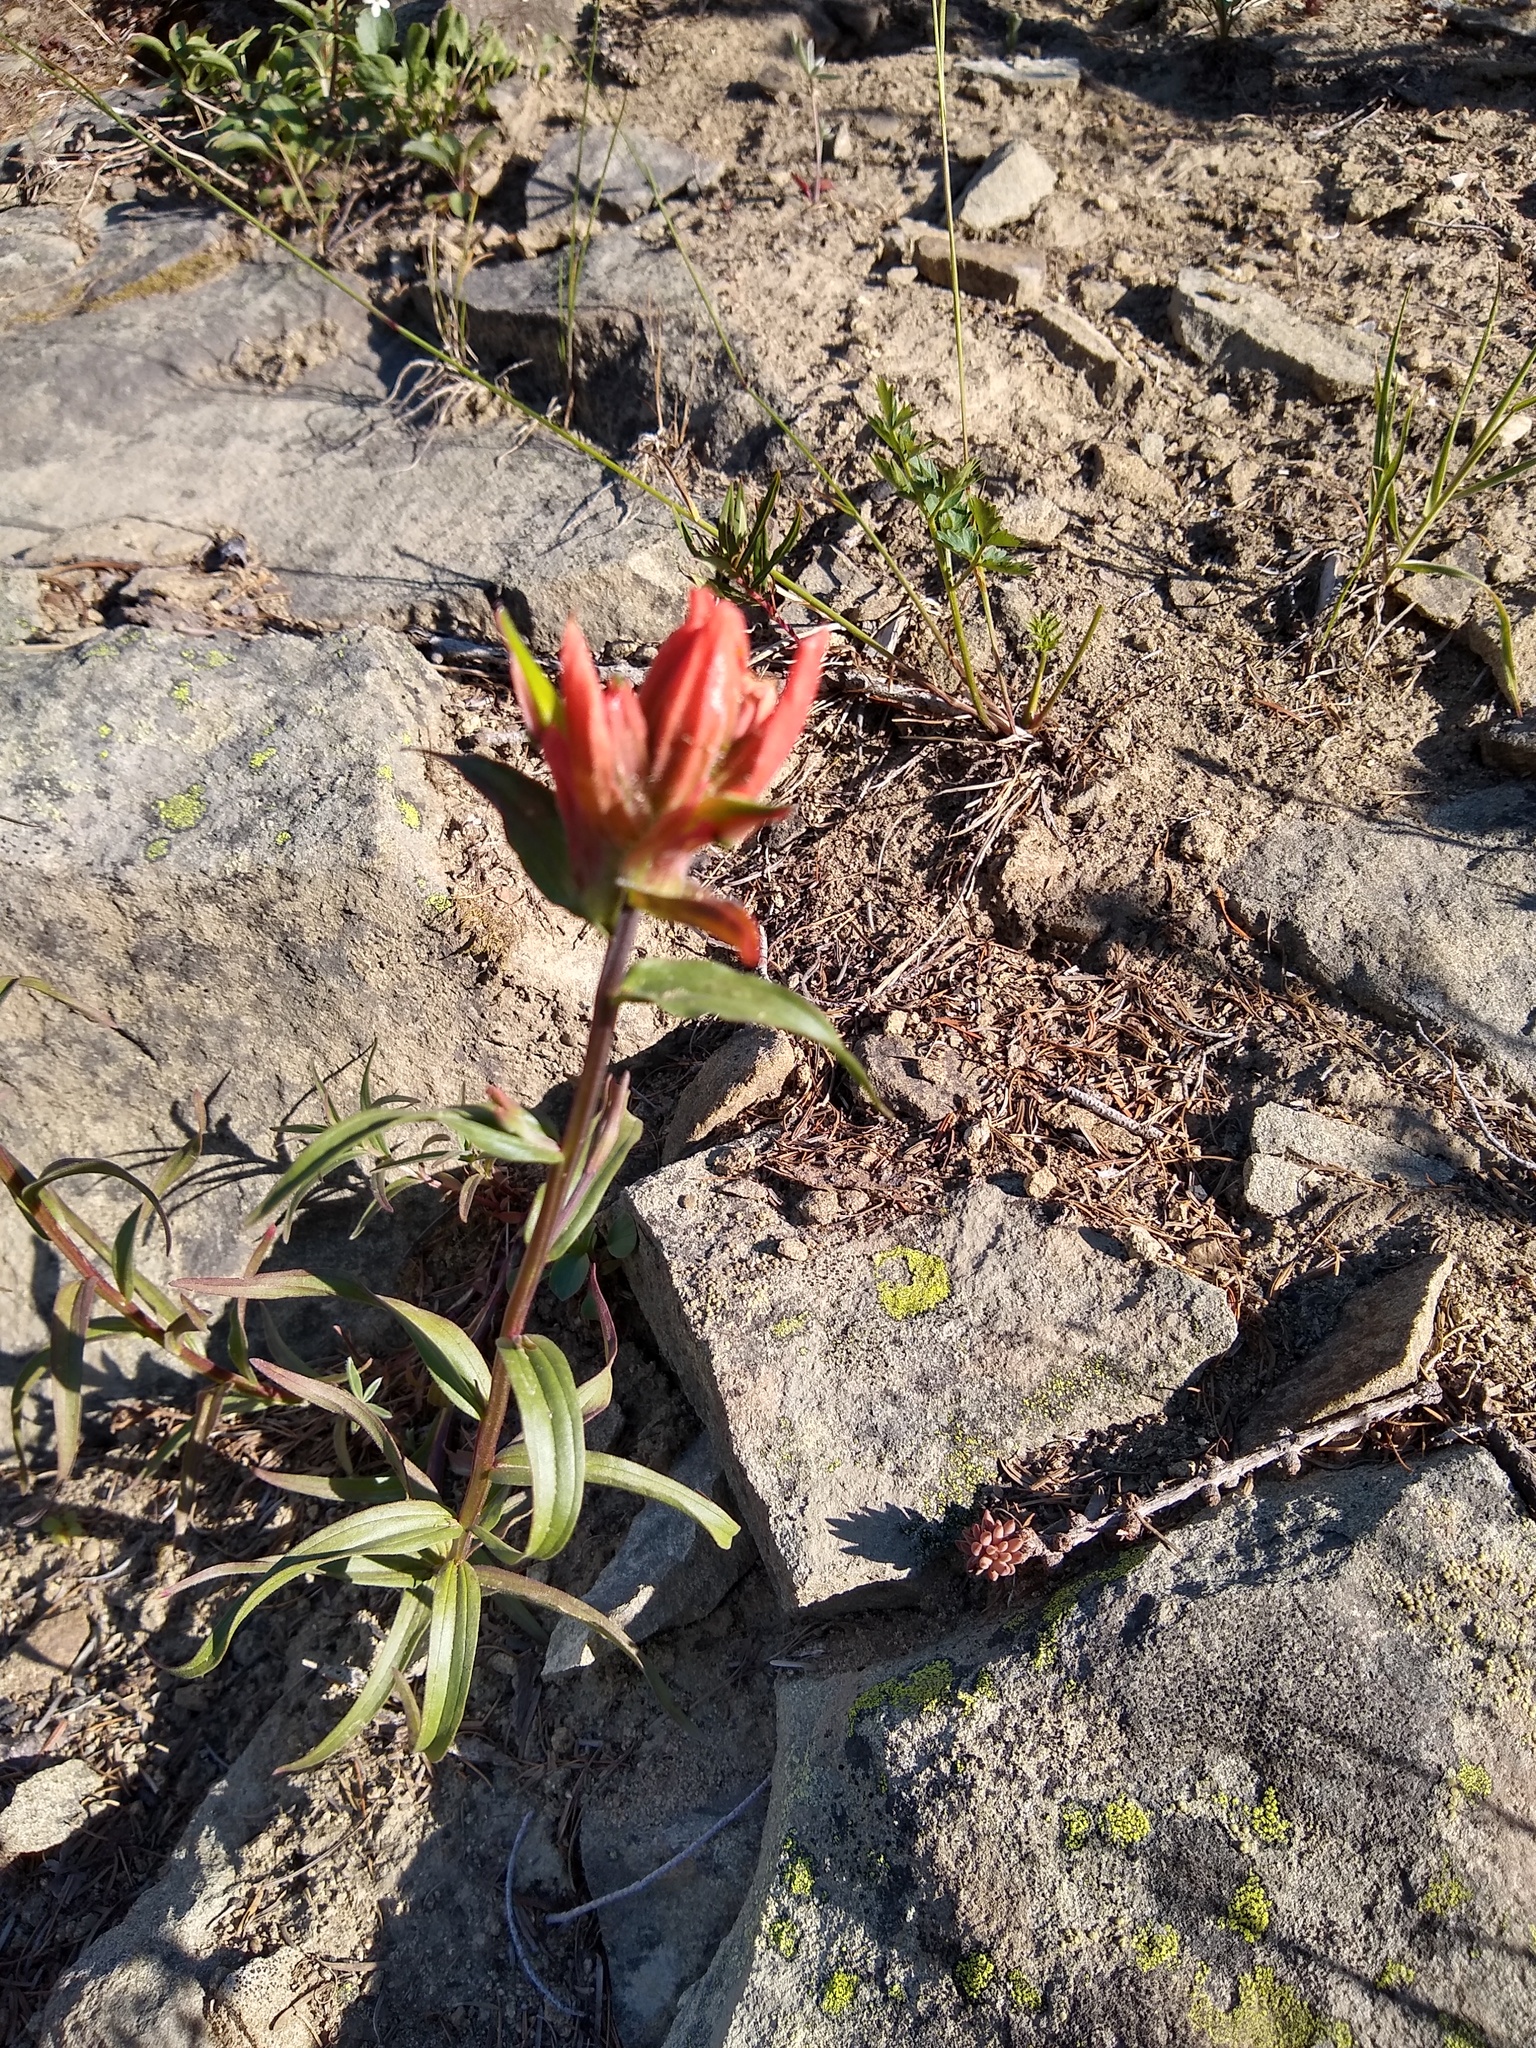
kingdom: Plantae
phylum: Tracheophyta
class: Magnoliopsida
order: Lamiales
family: Orobanchaceae
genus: Castilleja
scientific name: Castilleja miniata
